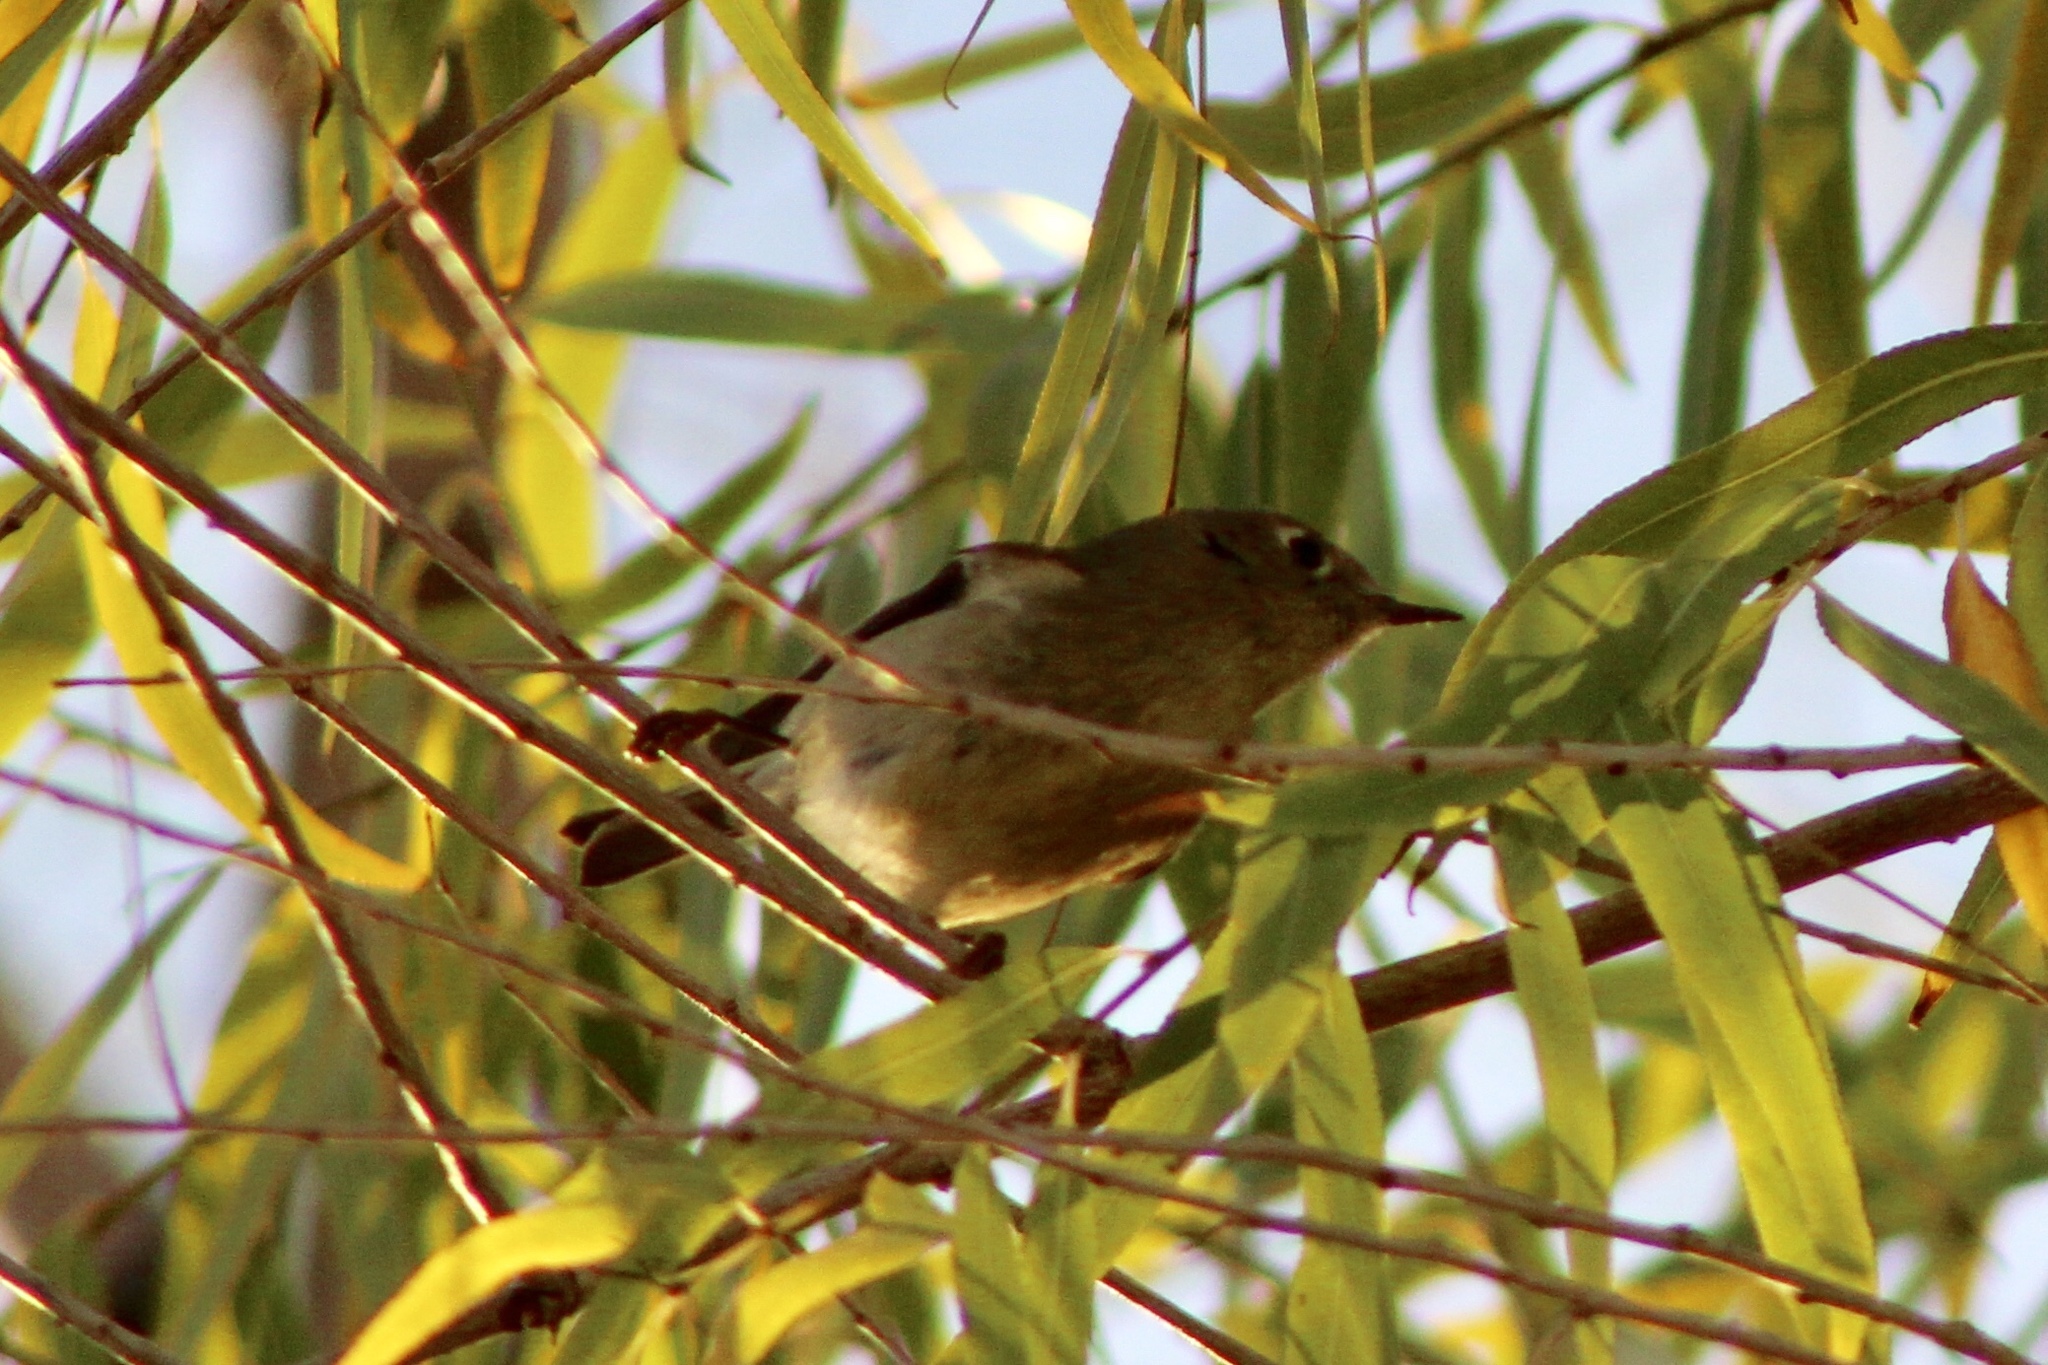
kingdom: Animalia
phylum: Chordata
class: Aves
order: Passeriformes
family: Regulidae
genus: Regulus
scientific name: Regulus calendula
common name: Ruby-crowned kinglet
